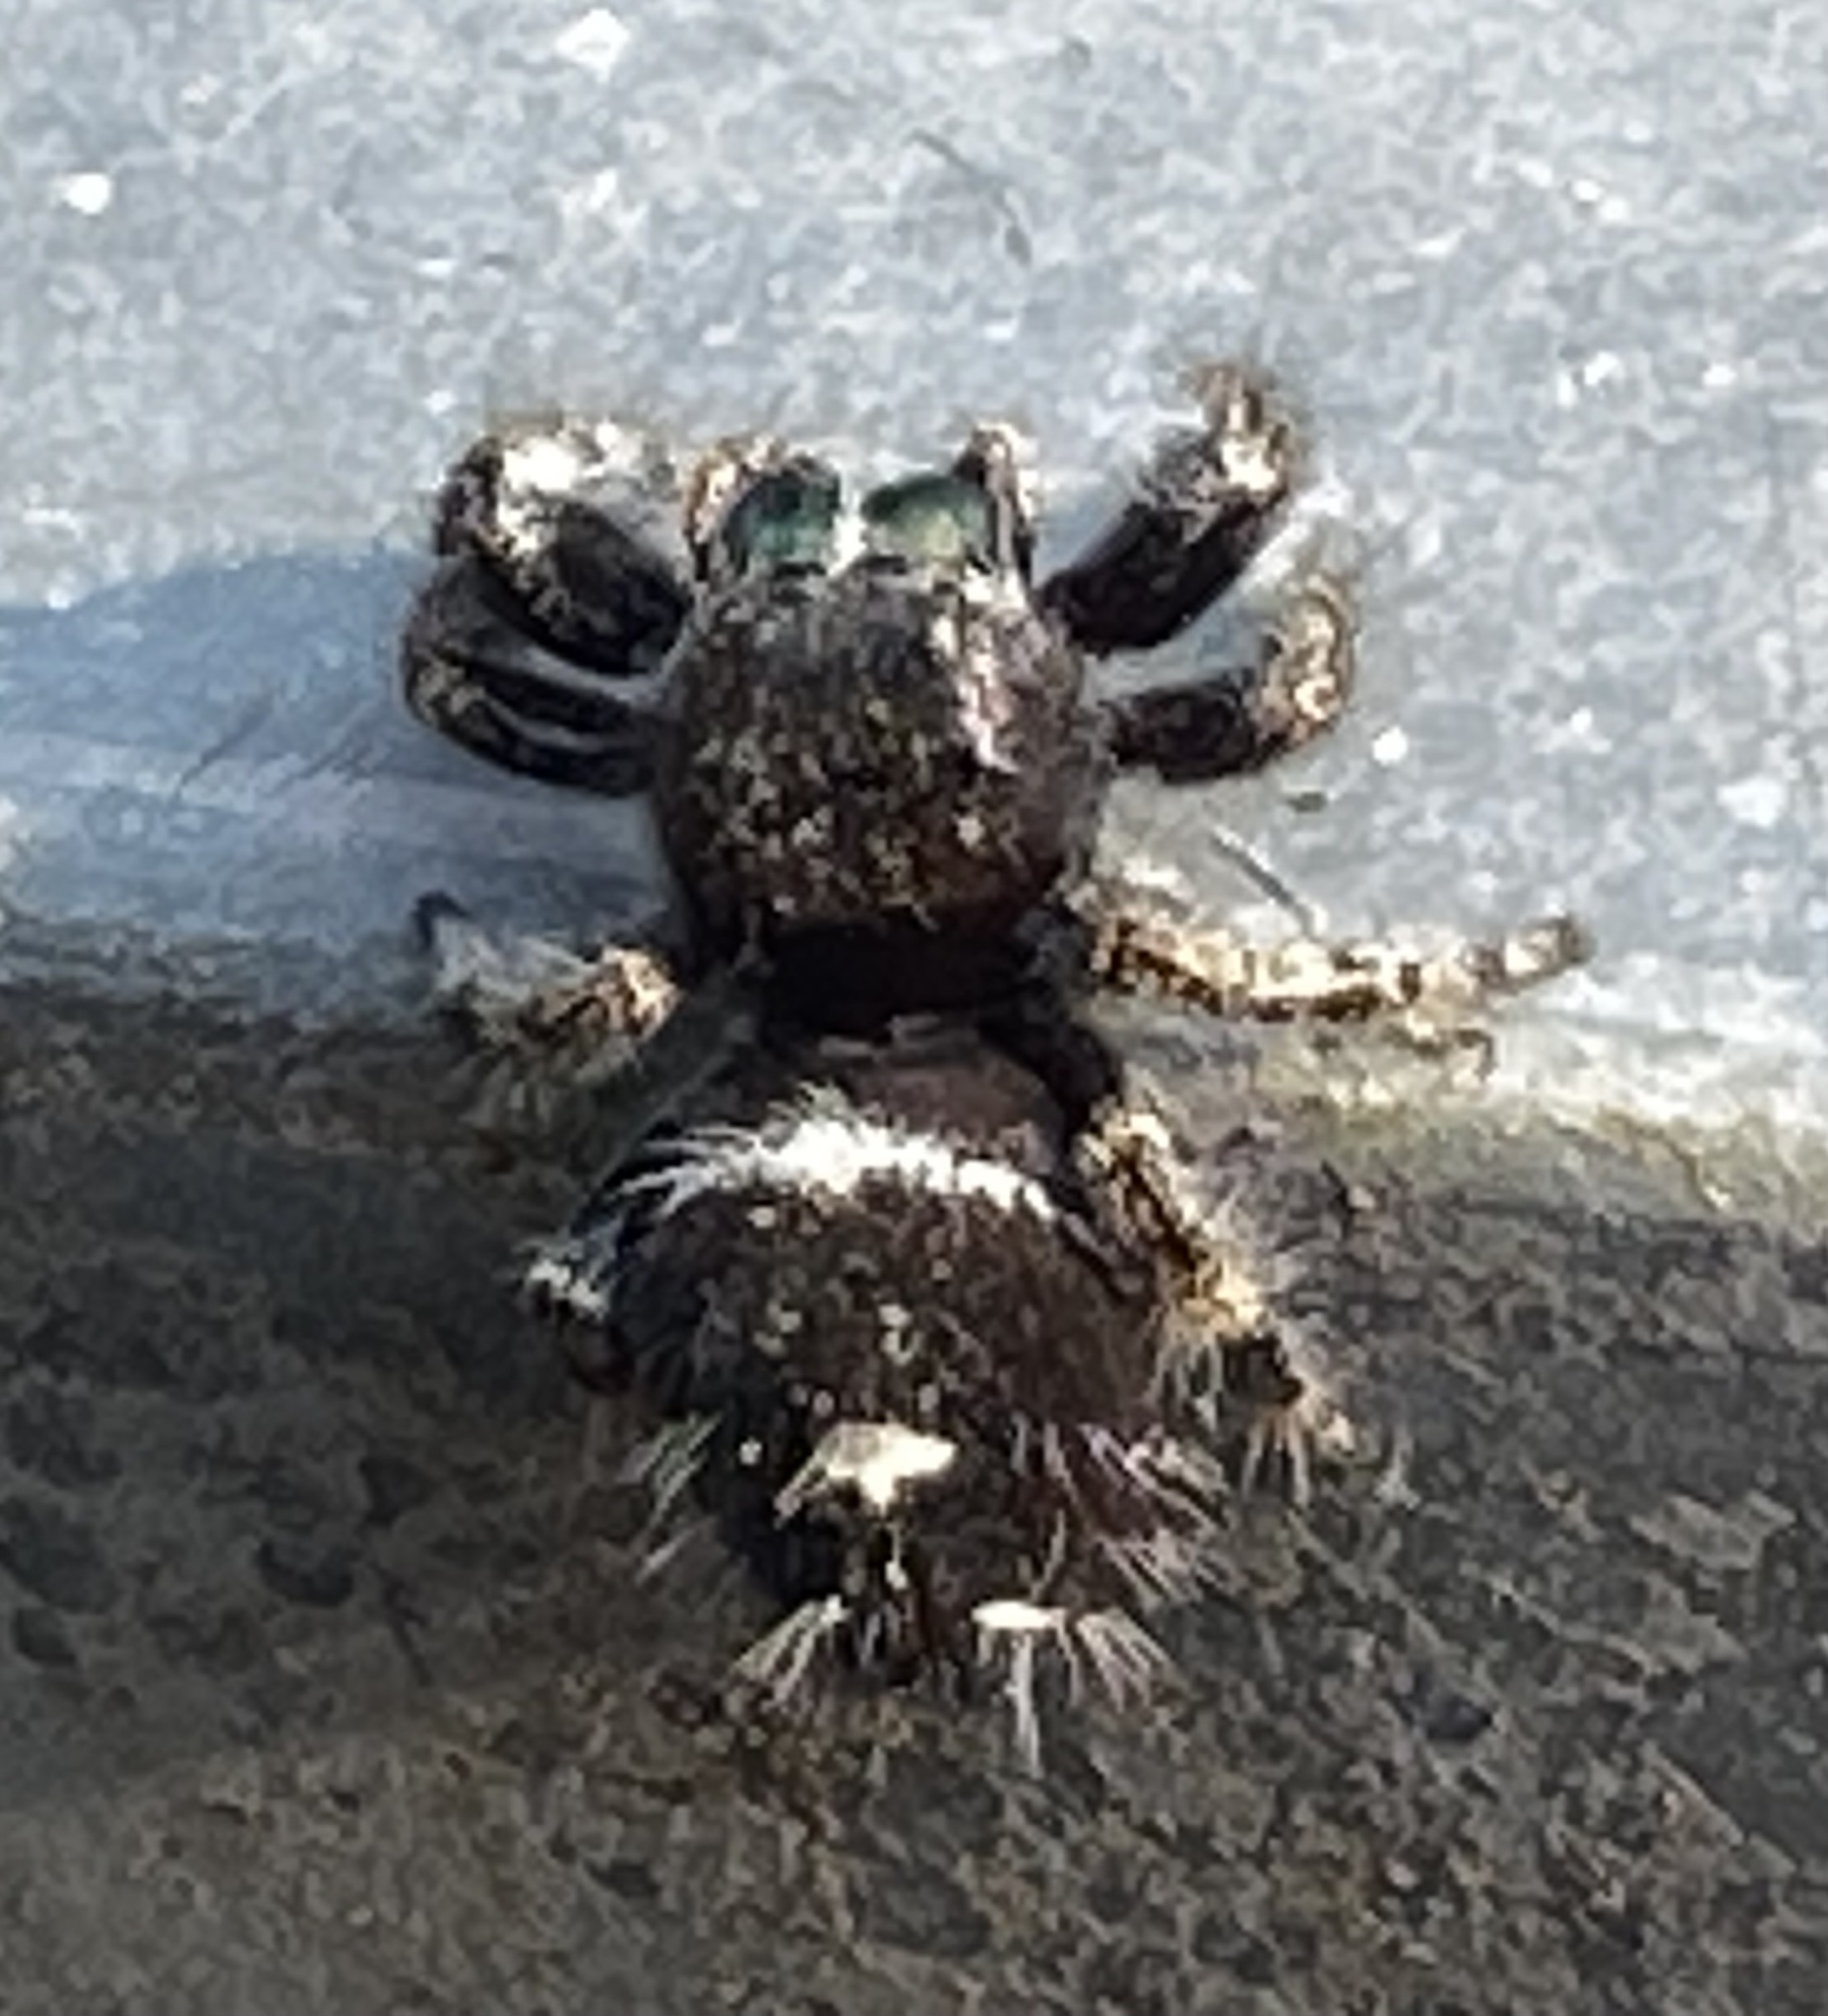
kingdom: Animalia
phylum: Arthropoda
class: Arachnida
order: Araneae
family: Salticidae
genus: Phidippus
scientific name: Phidippus audax
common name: Bold jumper
